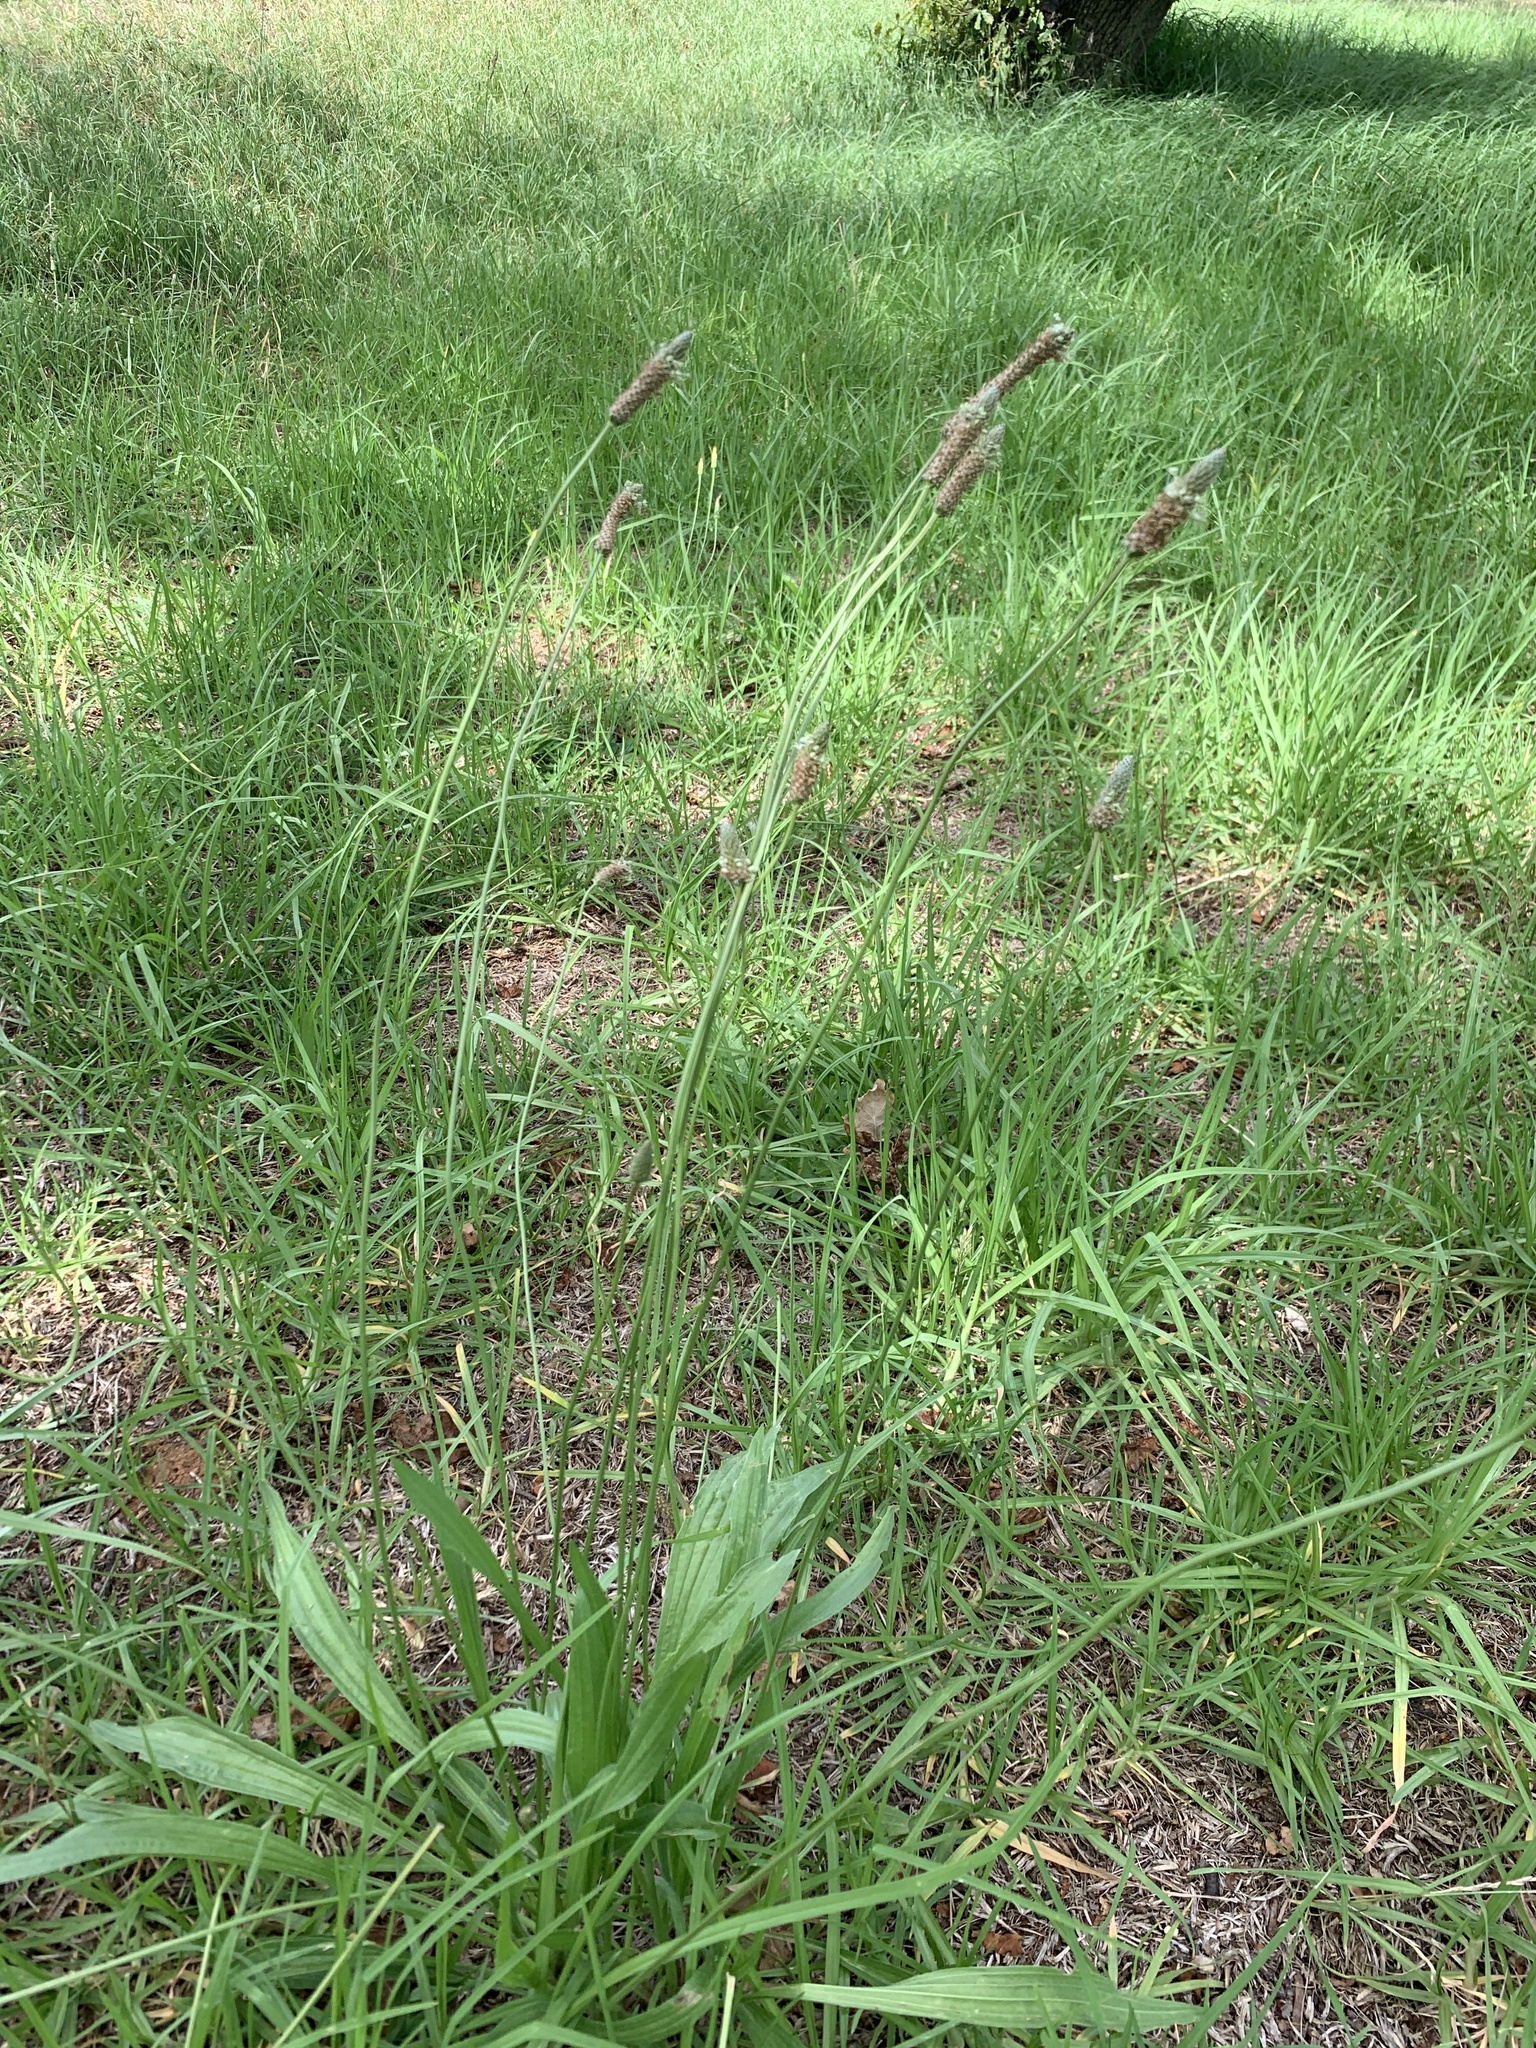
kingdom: Plantae
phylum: Tracheophyta
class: Magnoliopsida
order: Lamiales
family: Plantaginaceae
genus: Plantago
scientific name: Plantago lanceolata
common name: Ribwort plantain
